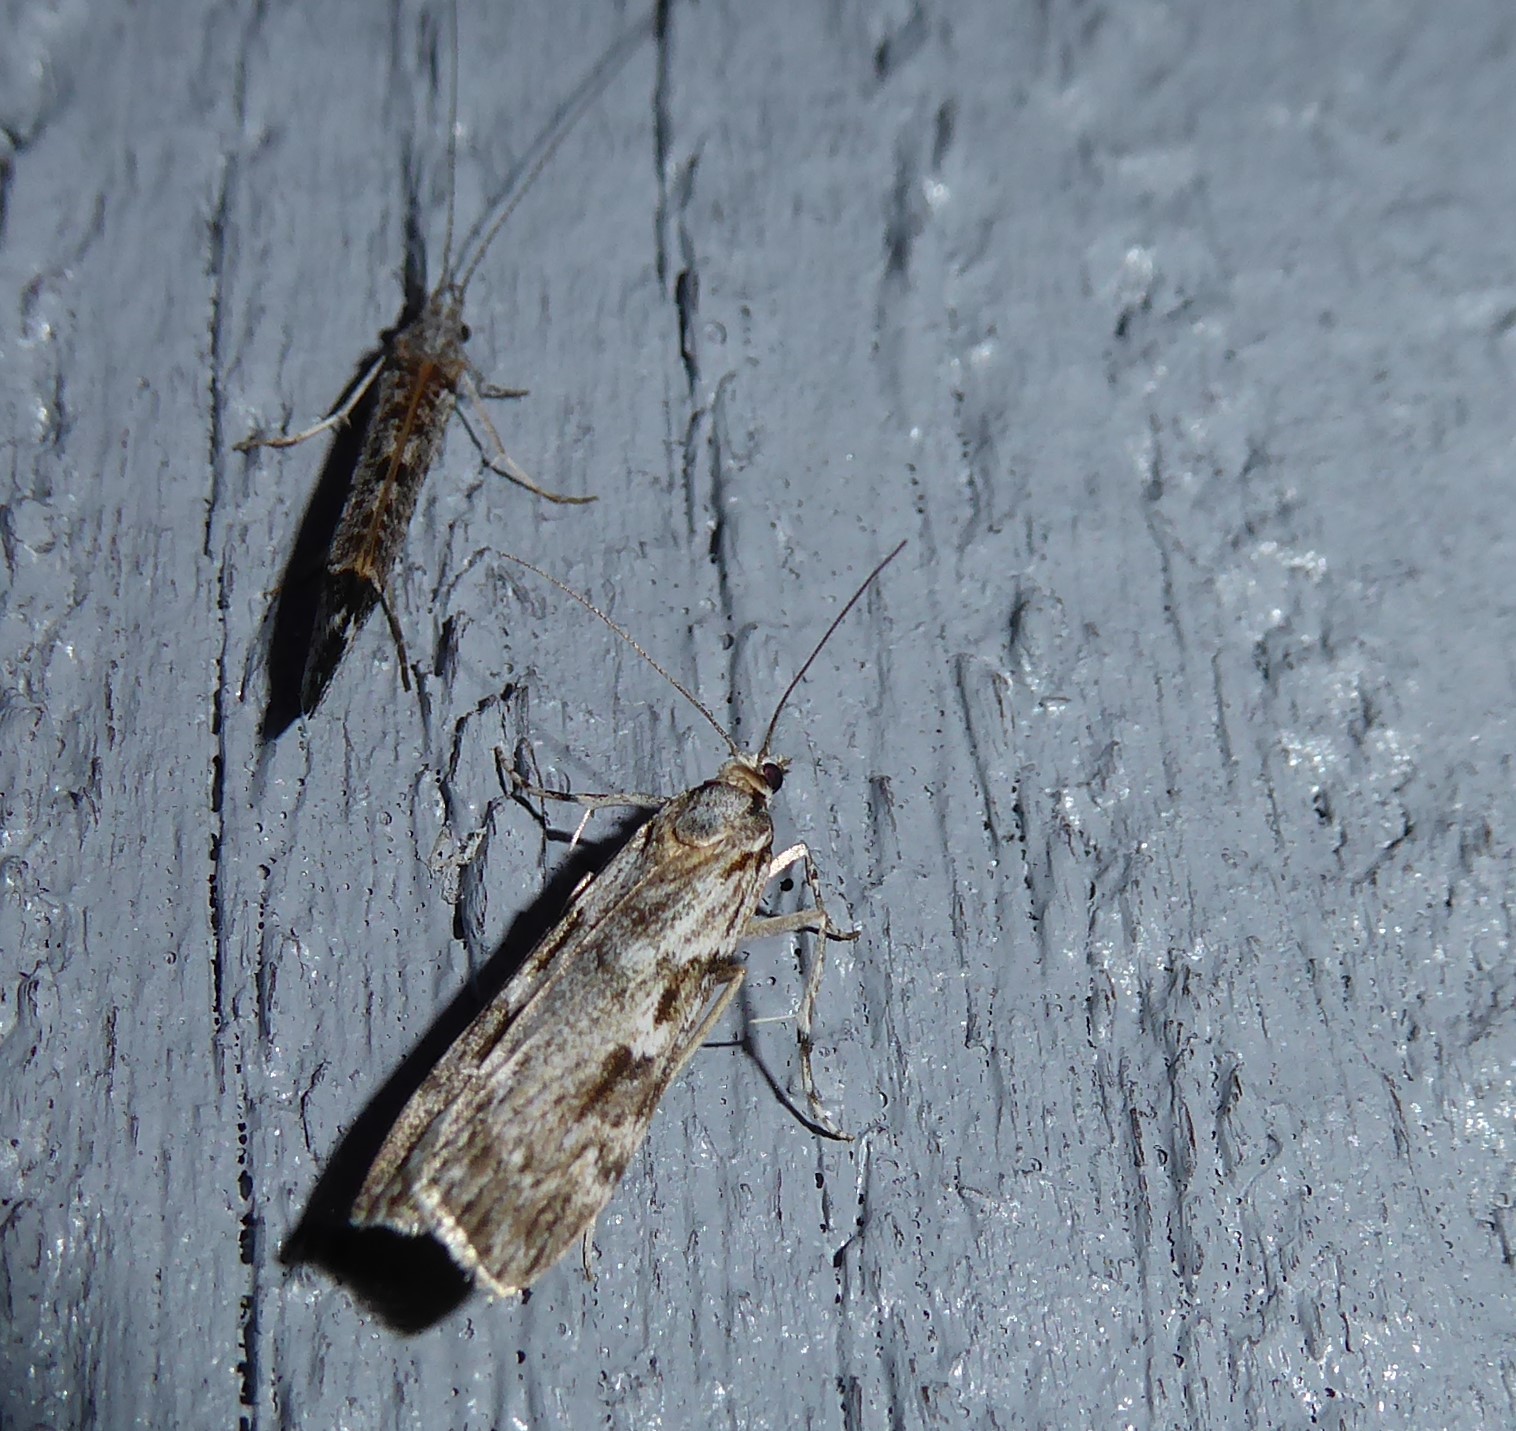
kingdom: Animalia
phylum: Arthropoda
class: Insecta
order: Lepidoptera
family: Crambidae
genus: Scoparia
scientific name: Scoparia halopis
